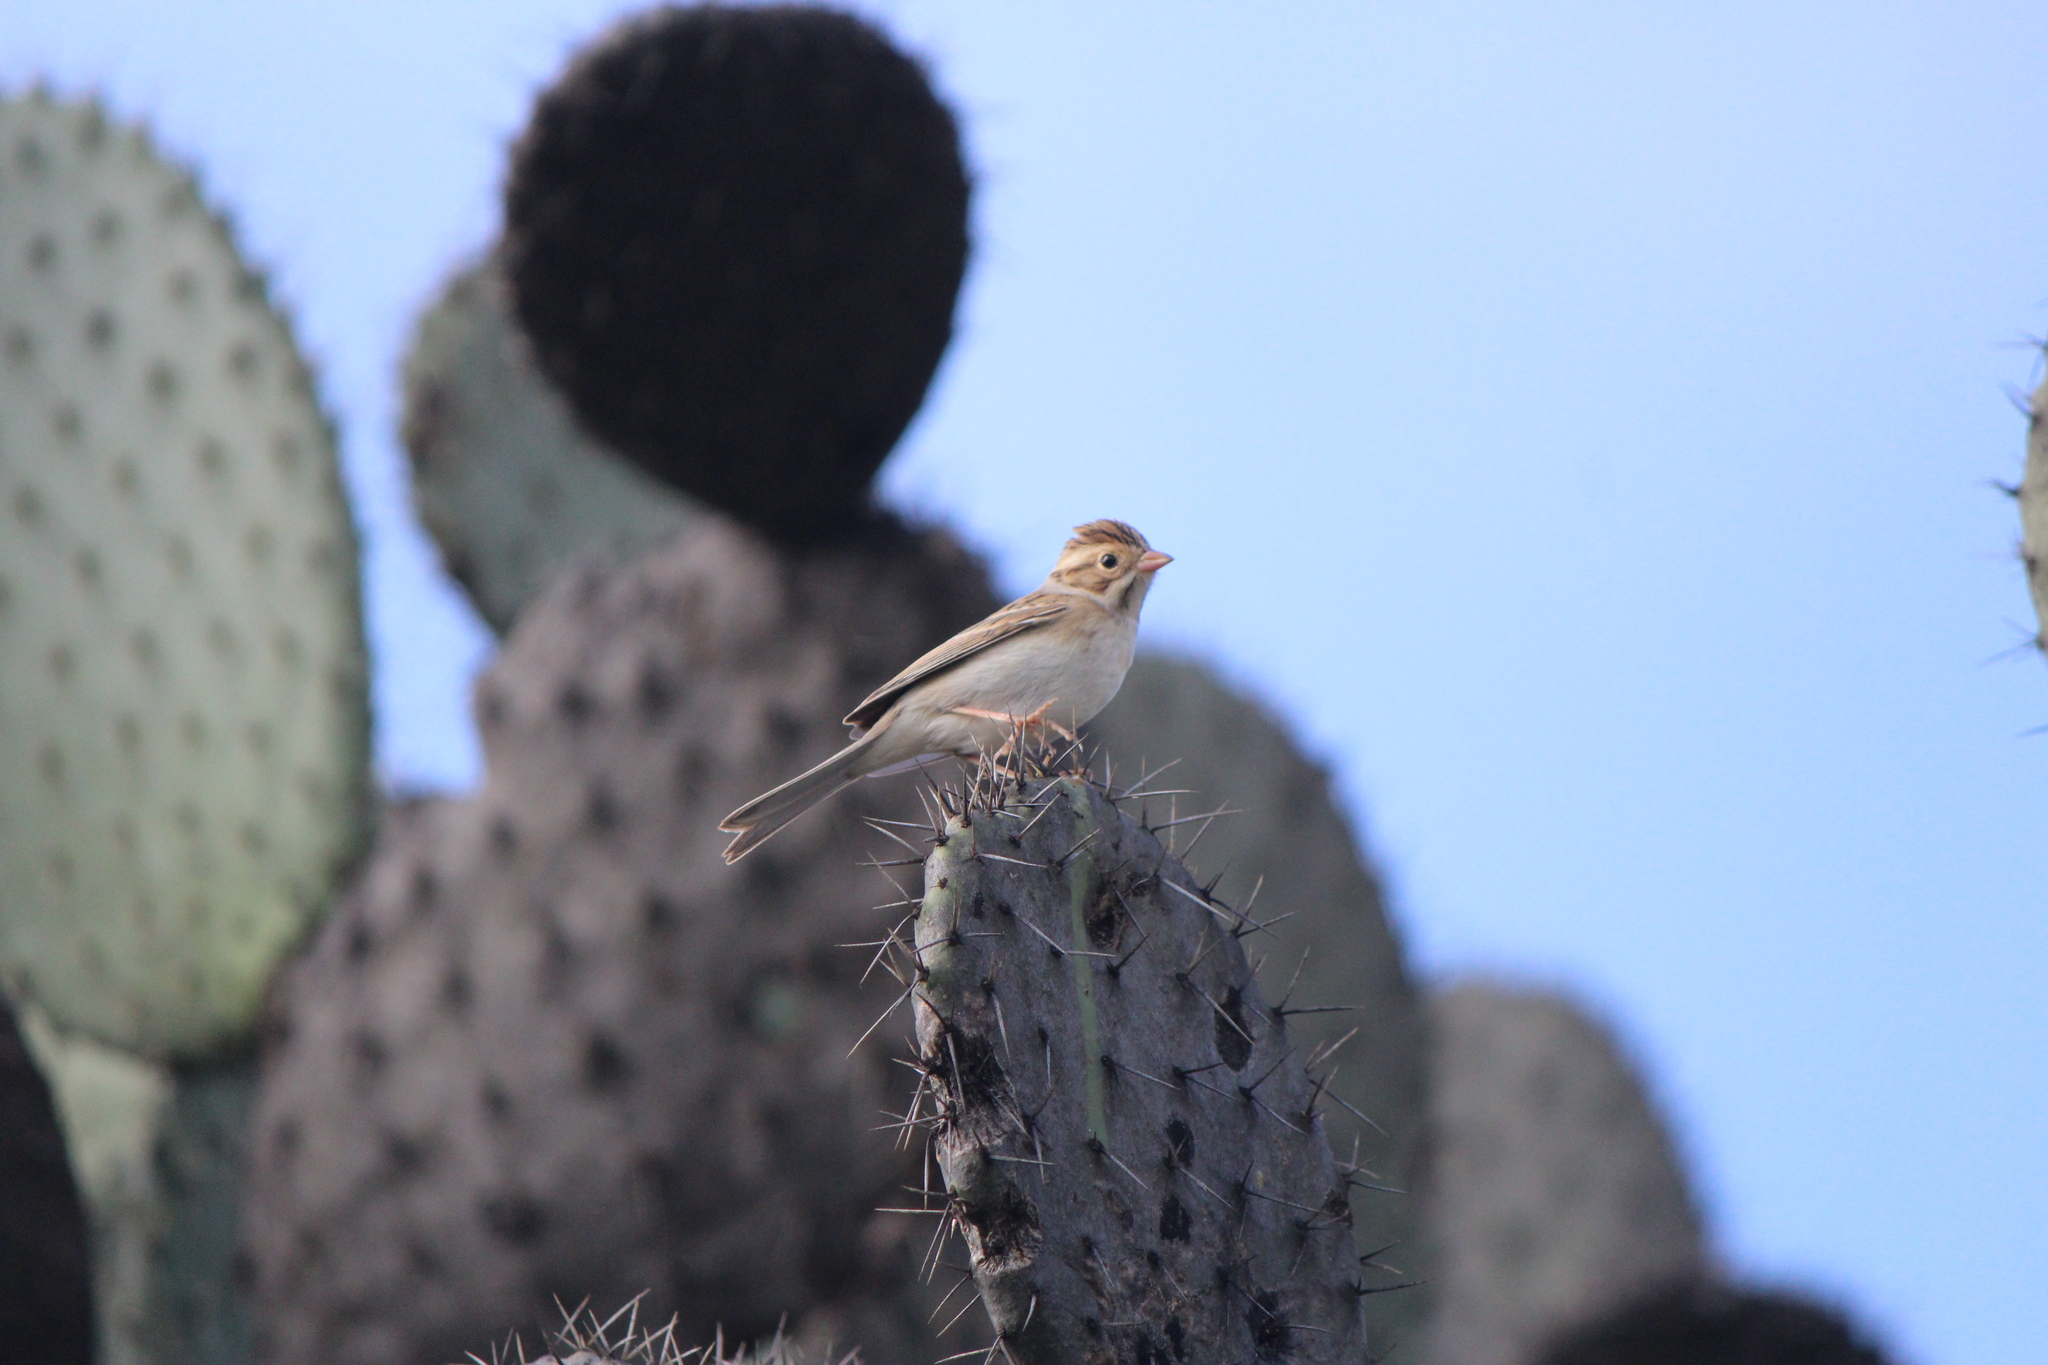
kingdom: Animalia
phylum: Chordata
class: Aves
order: Passeriformes
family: Passerellidae
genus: Spizella
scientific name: Spizella pallida
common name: Clay-colored sparrow
